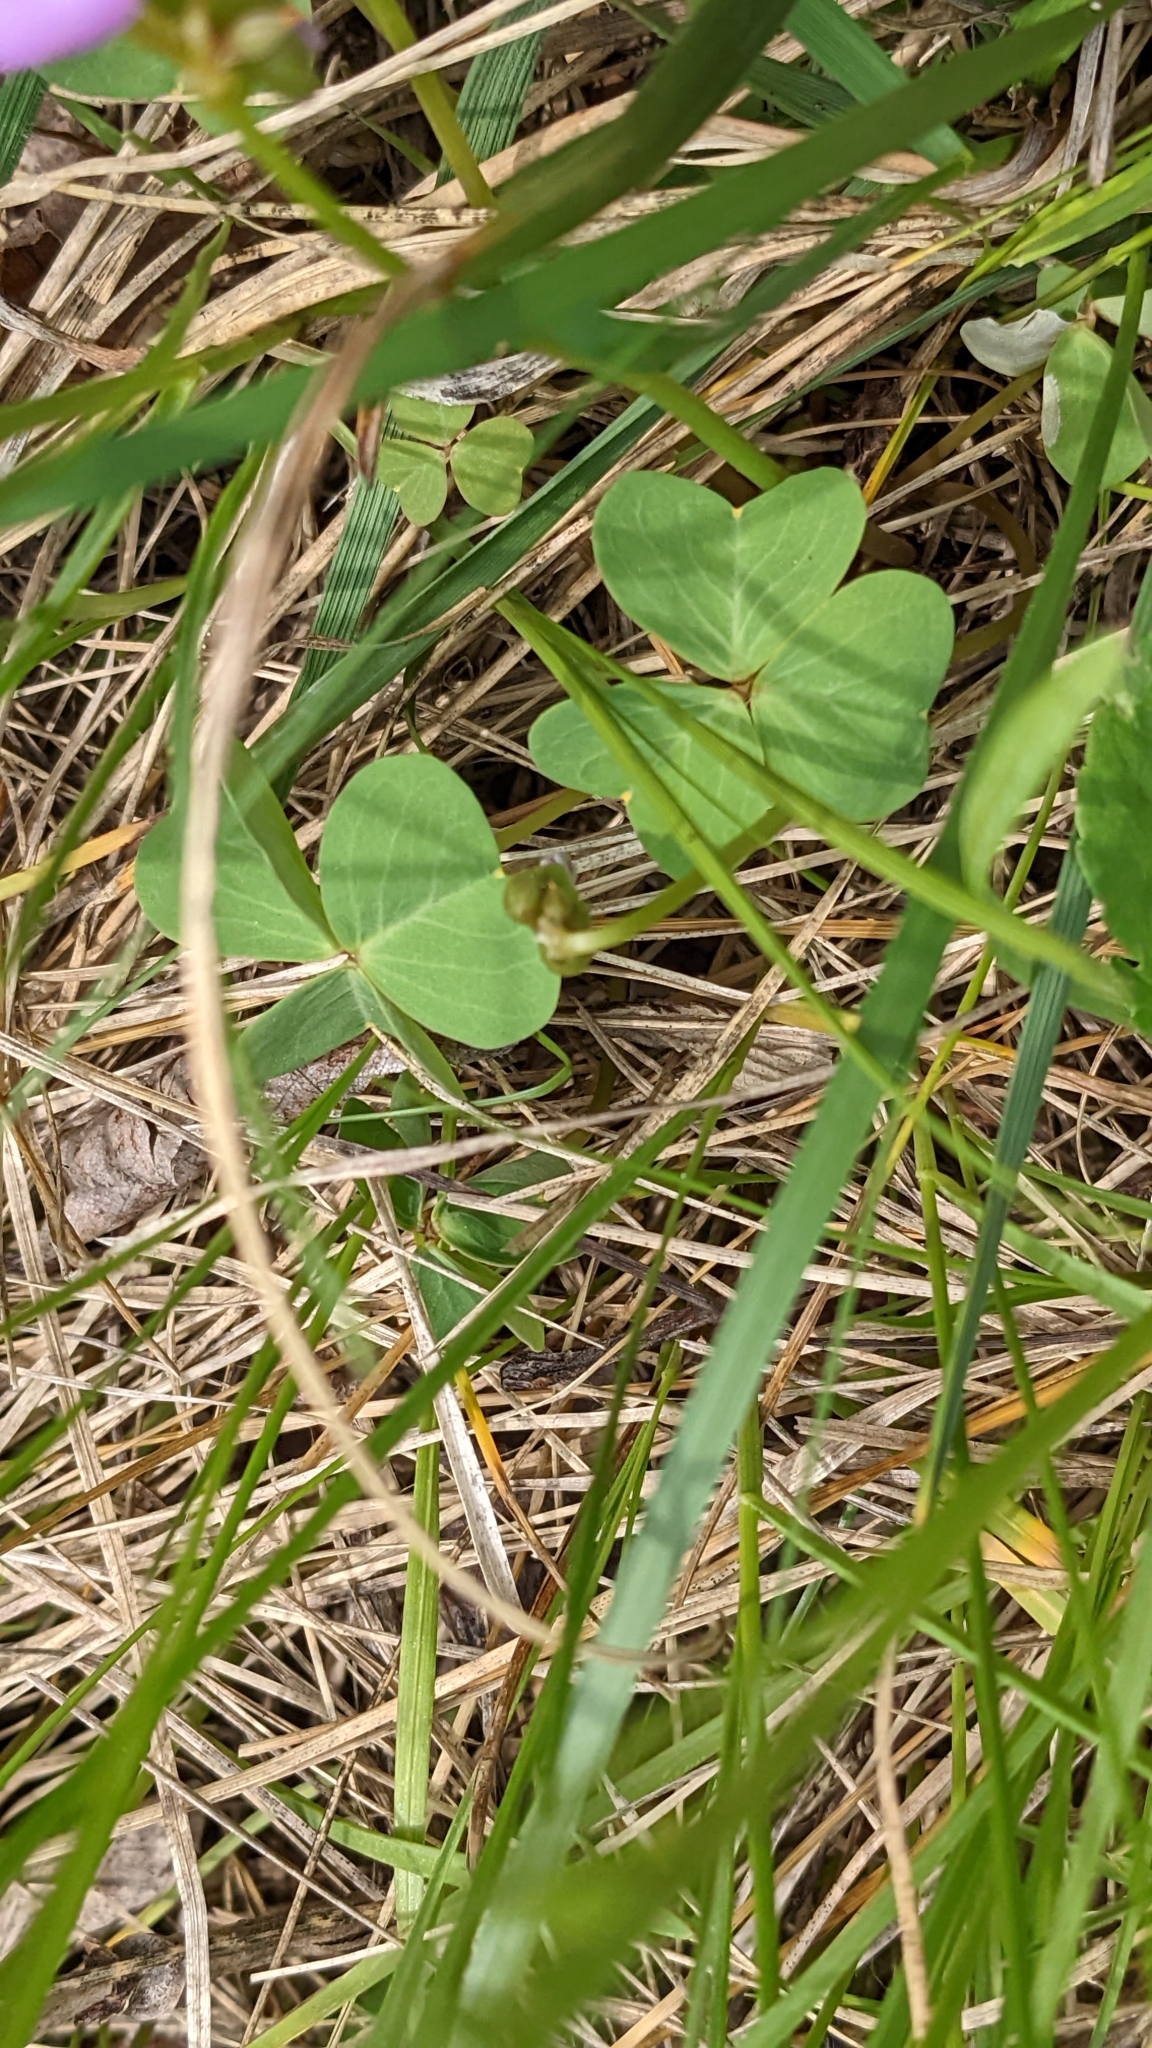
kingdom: Plantae
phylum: Tracheophyta
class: Magnoliopsida
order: Oxalidales
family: Oxalidaceae
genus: Oxalis
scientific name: Oxalis violacea
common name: Violet wood-sorrel
